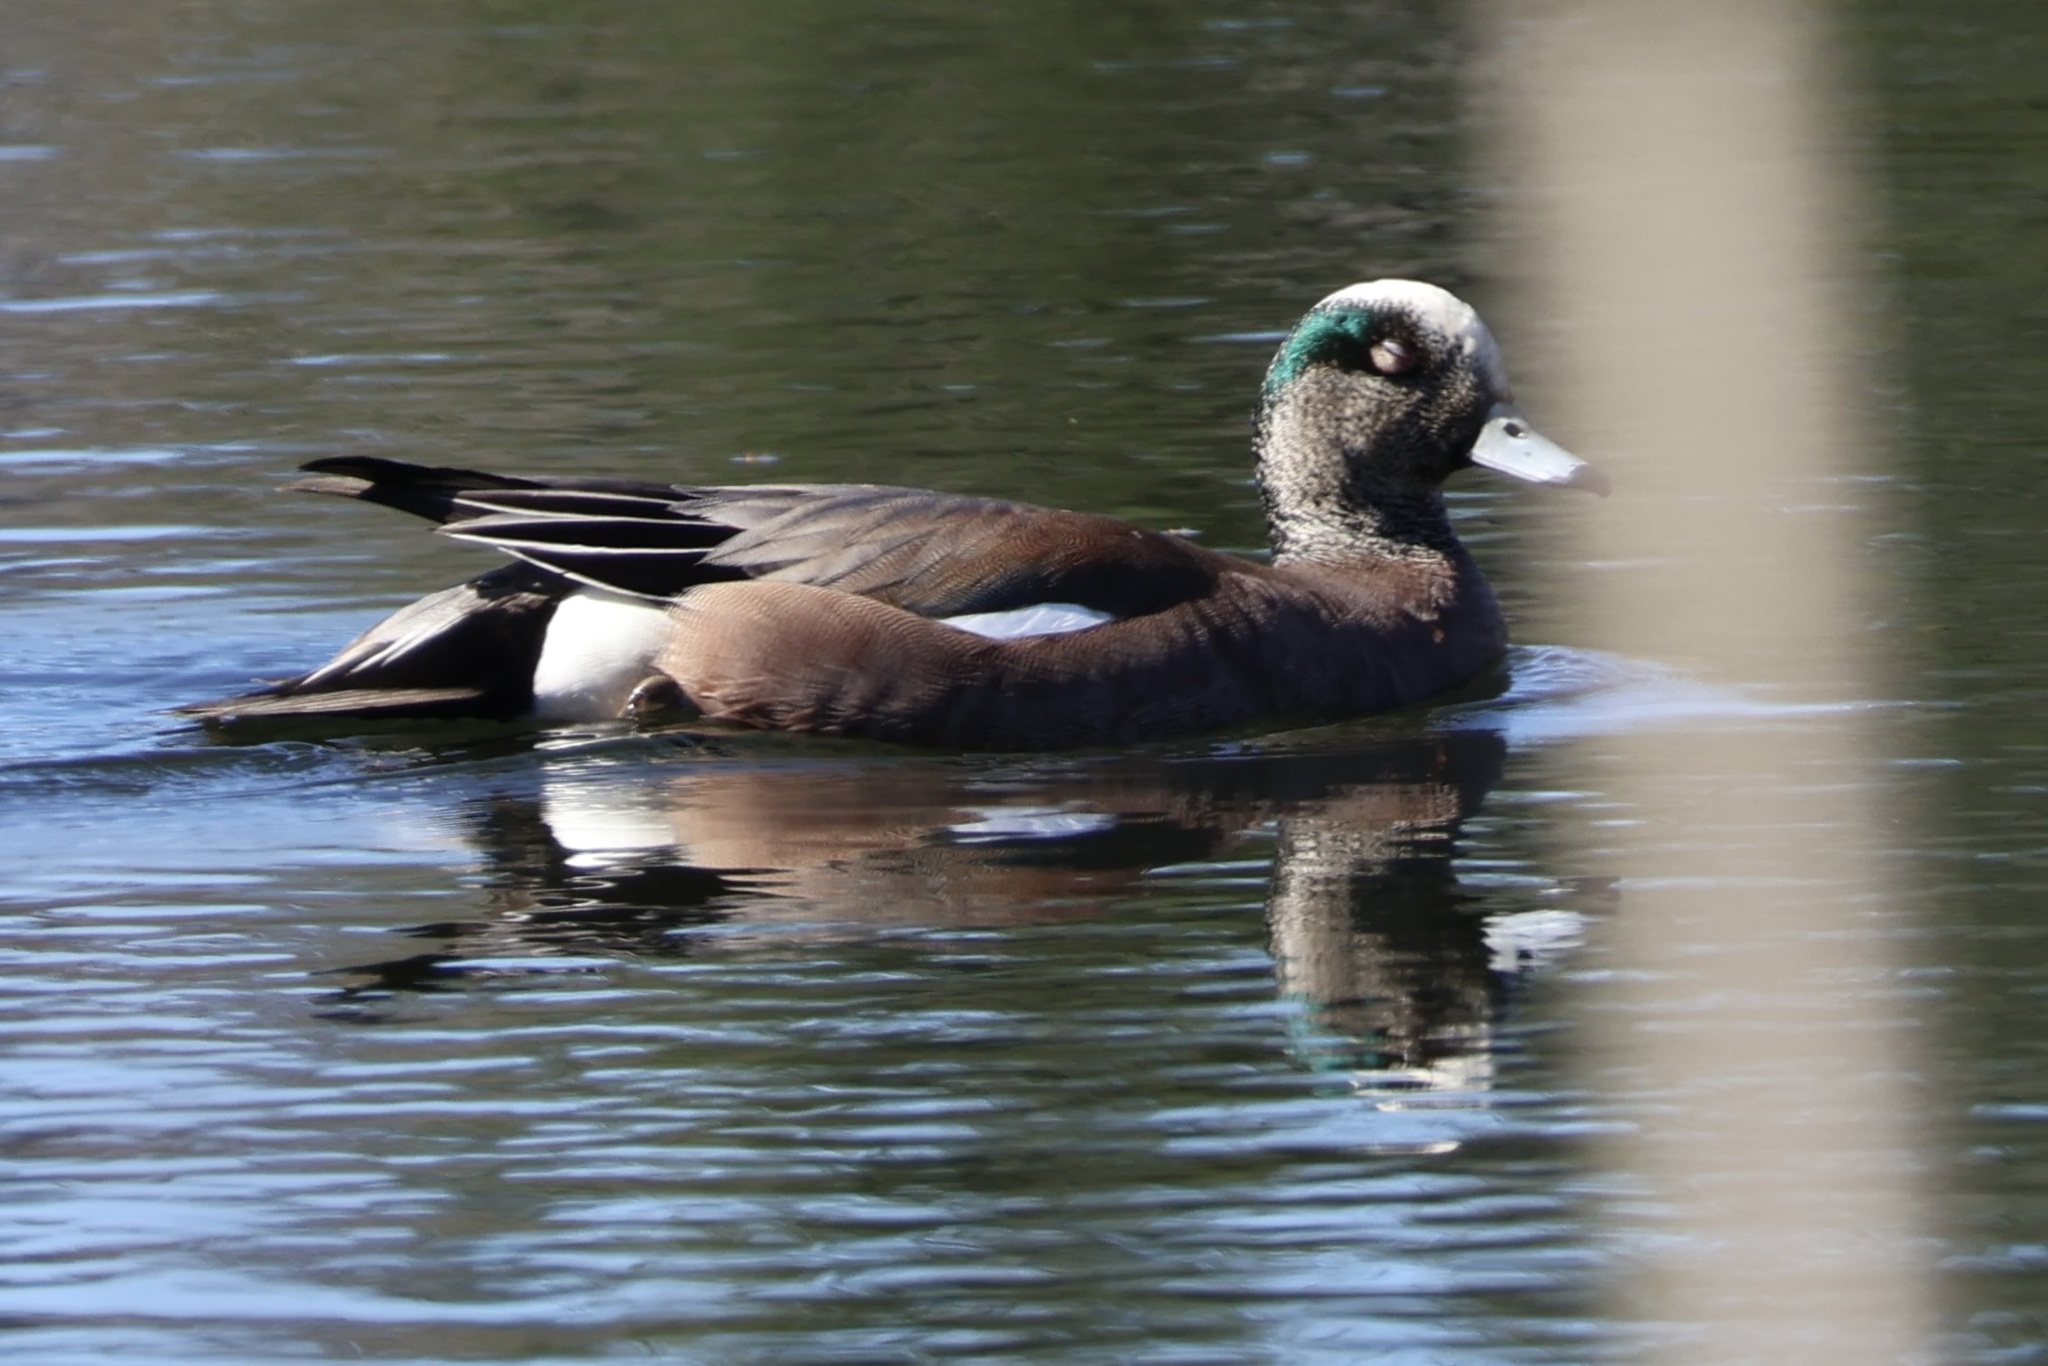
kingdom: Animalia
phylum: Chordata
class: Aves
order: Anseriformes
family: Anatidae
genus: Mareca
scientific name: Mareca americana
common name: American wigeon
